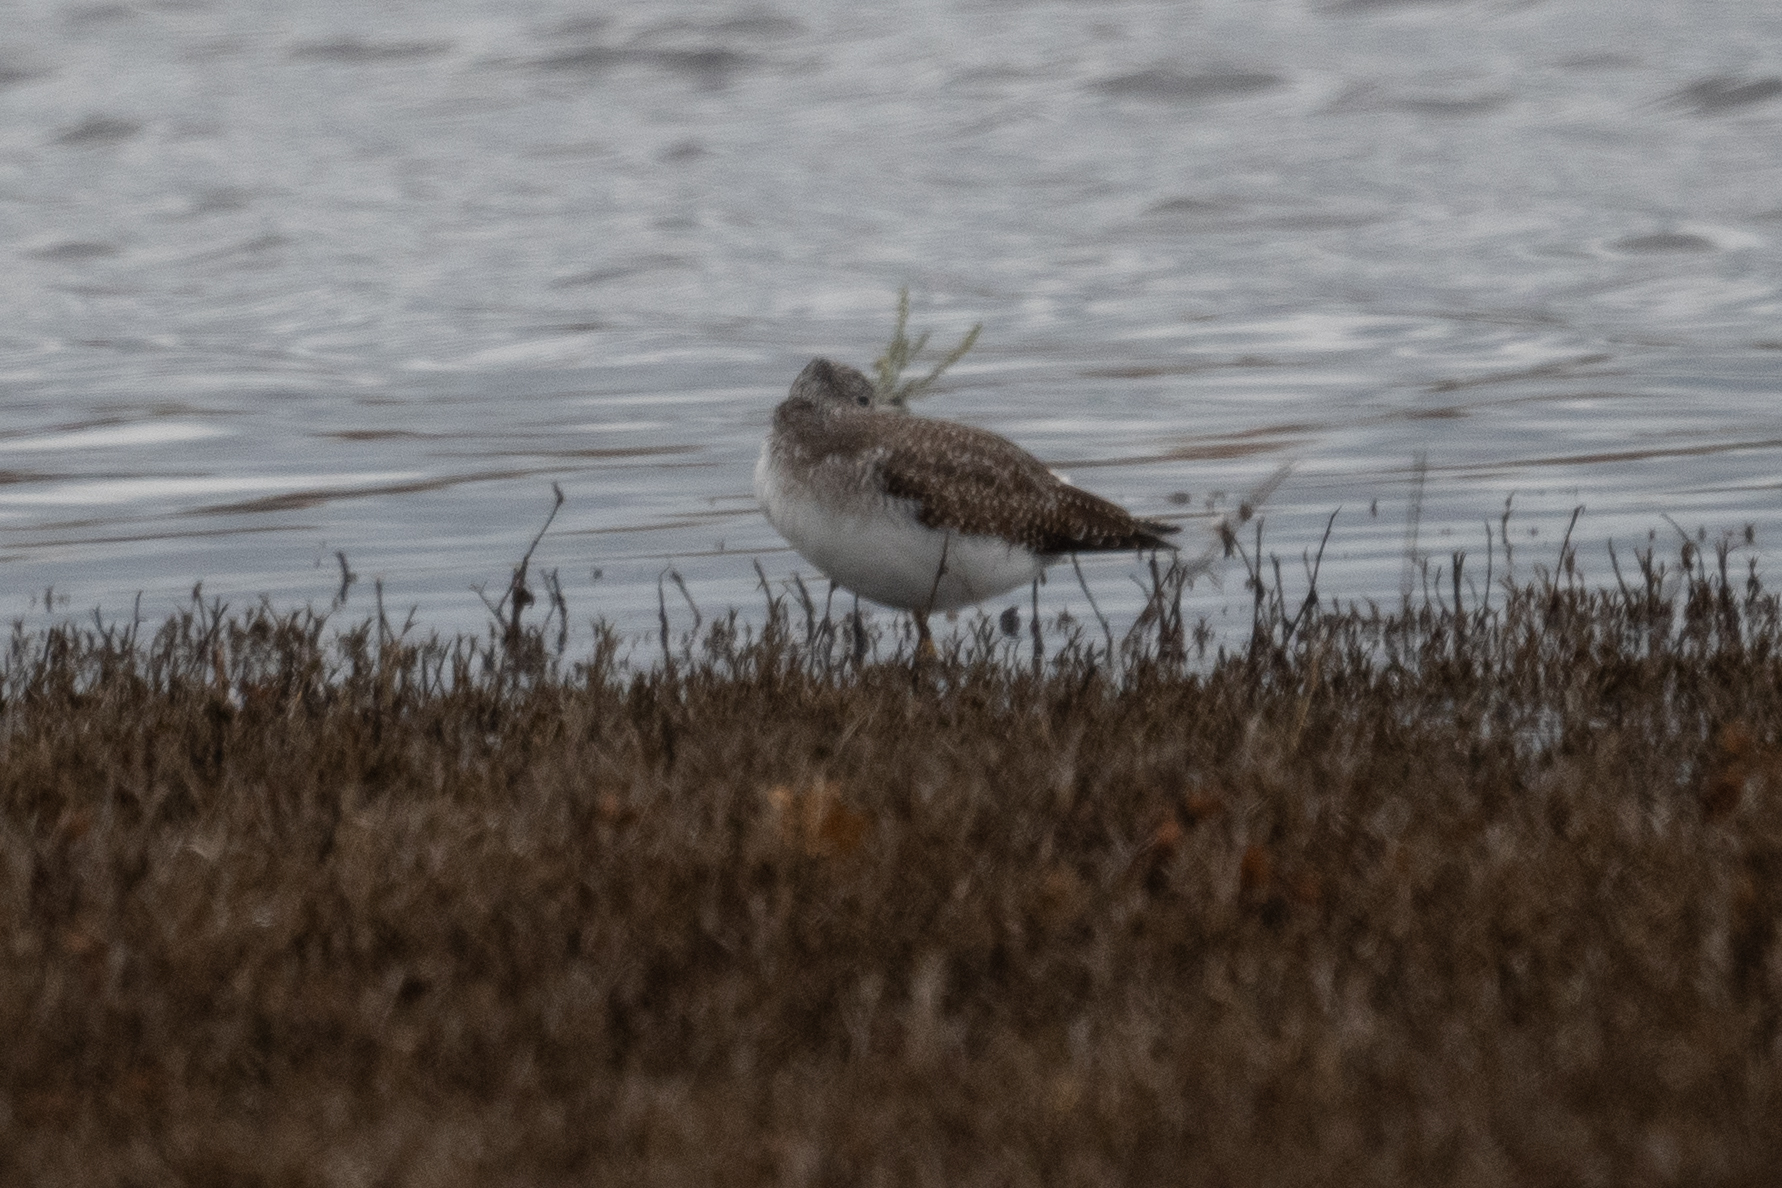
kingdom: Animalia
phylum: Chordata
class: Aves
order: Charadriiformes
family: Scolopacidae
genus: Tringa
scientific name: Tringa melanoleuca
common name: Greater yellowlegs
